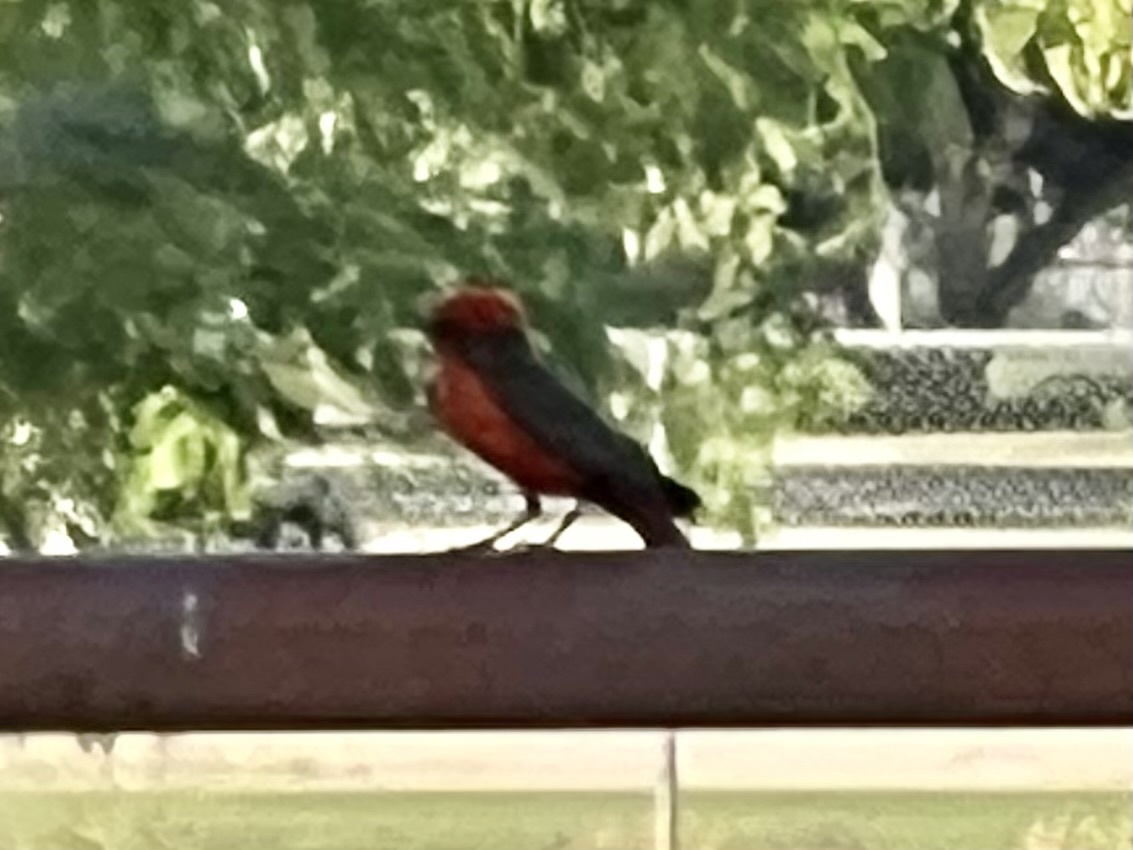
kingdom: Animalia
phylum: Chordata
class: Aves
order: Passeriformes
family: Tyrannidae
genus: Pyrocephalus
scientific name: Pyrocephalus rubinus
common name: Vermilion flycatcher
